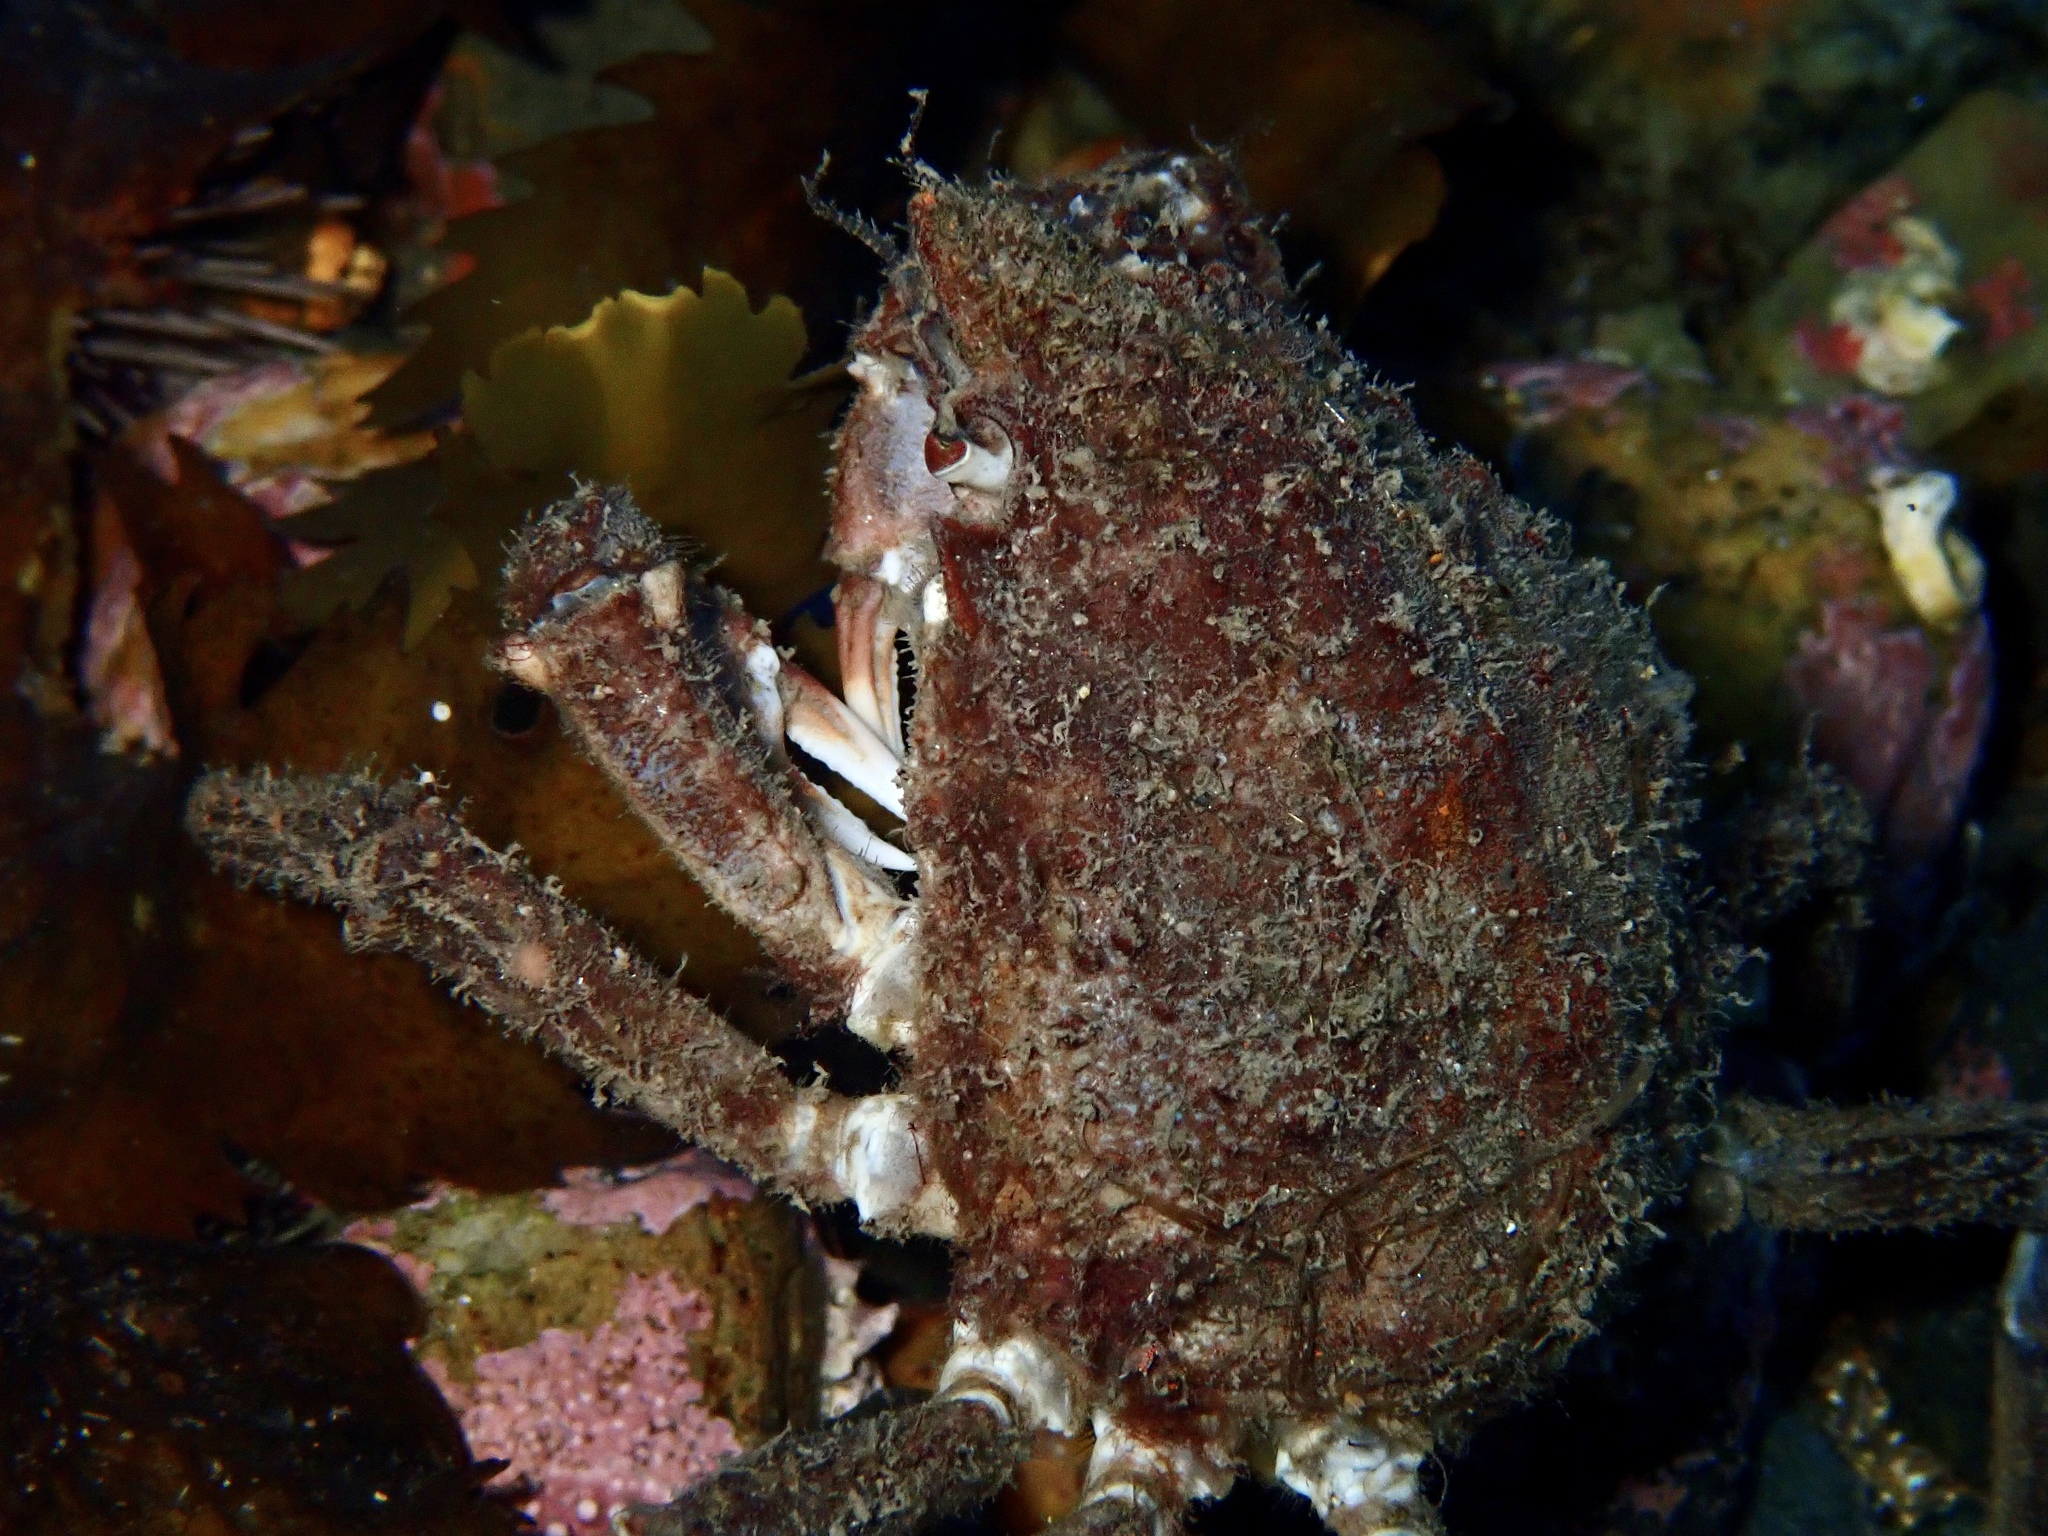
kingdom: Animalia
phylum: Arthropoda
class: Malacostraca
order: Decapoda
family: Oregoniidae
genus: Hyas
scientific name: Hyas araneus
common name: Great spider crab
